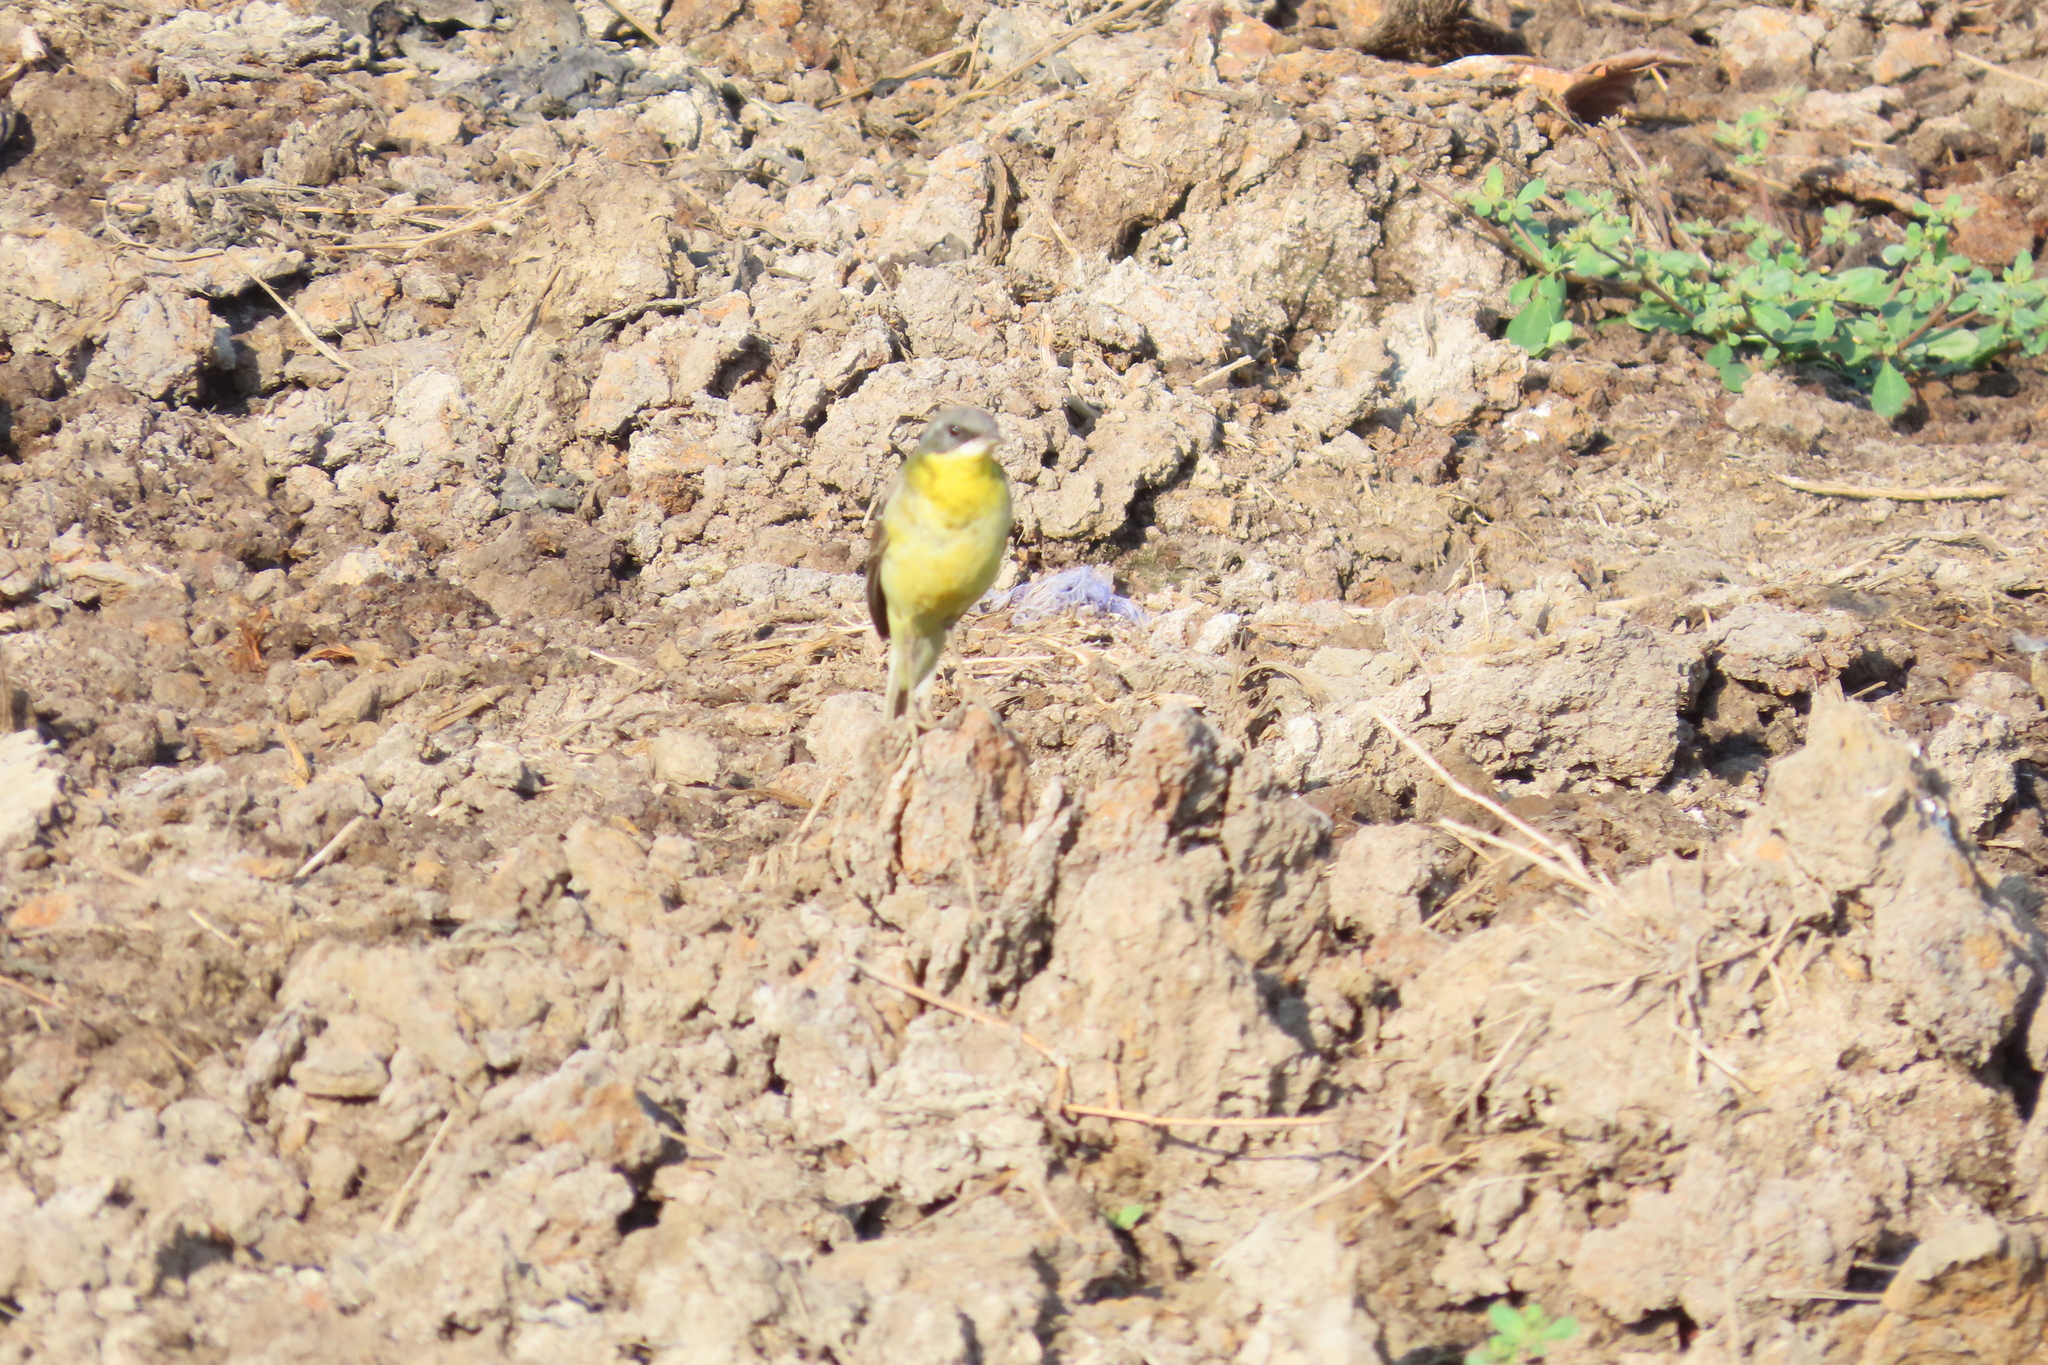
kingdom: Animalia
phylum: Chordata
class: Aves
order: Passeriformes
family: Motacillidae
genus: Motacilla
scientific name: Motacilla flava
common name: Western yellow wagtail
